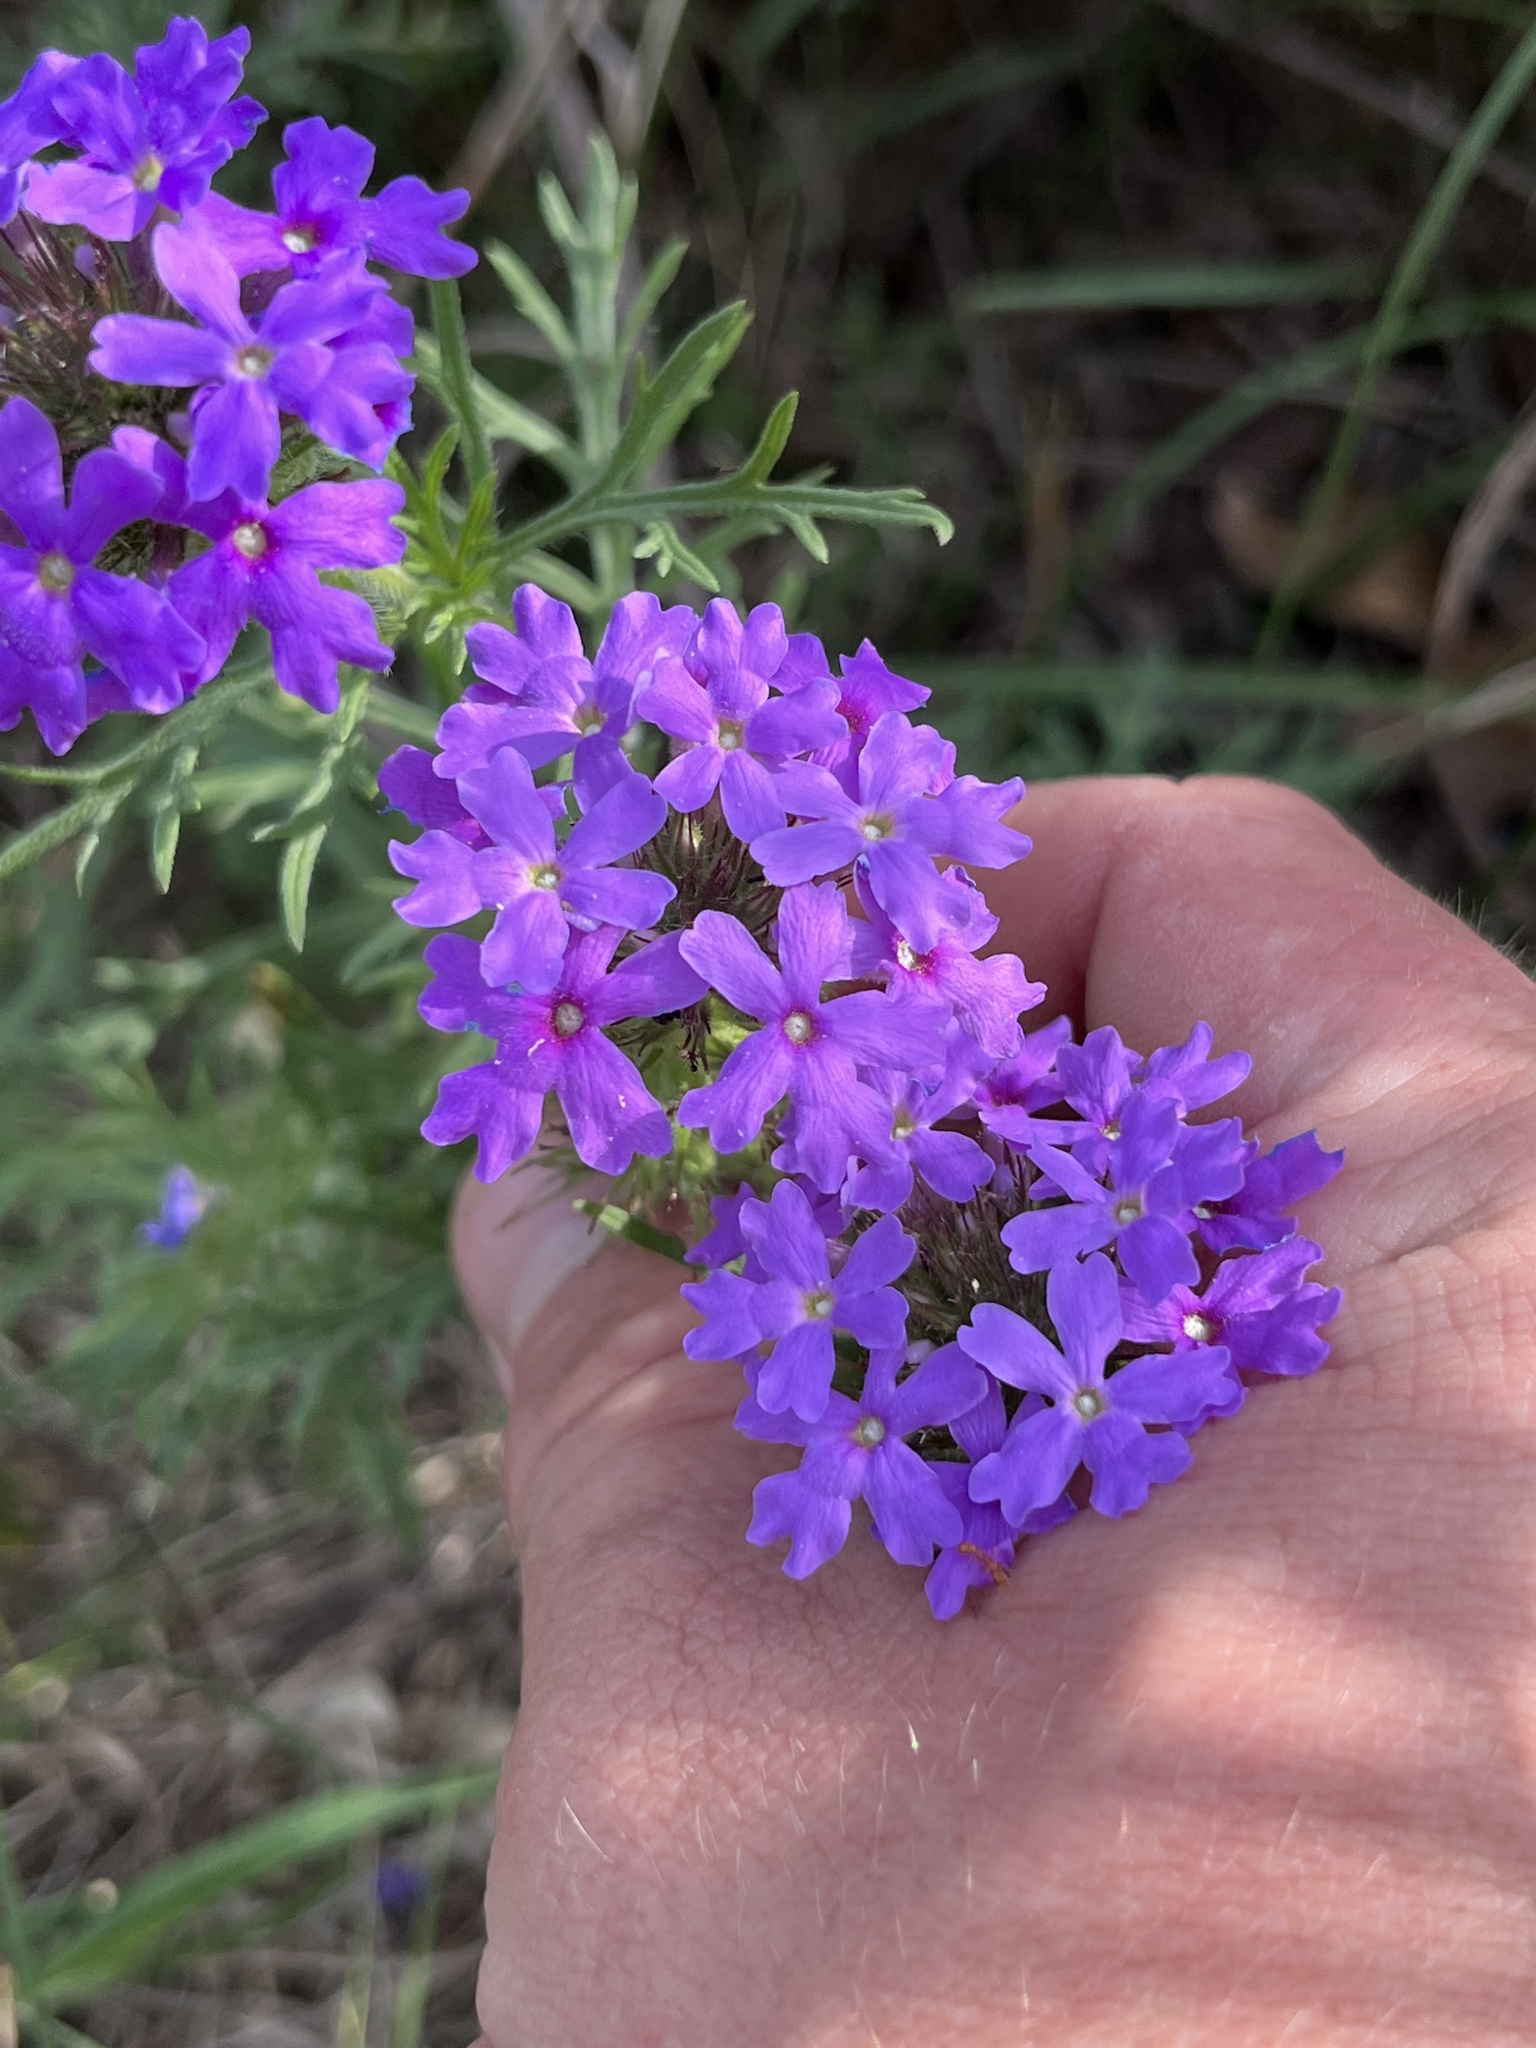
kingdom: Plantae
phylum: Tracheophyta
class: Magnoliopsida
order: Lamiales
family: Verbenaceae
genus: Verbena
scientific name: Verbena bipinnatifida
